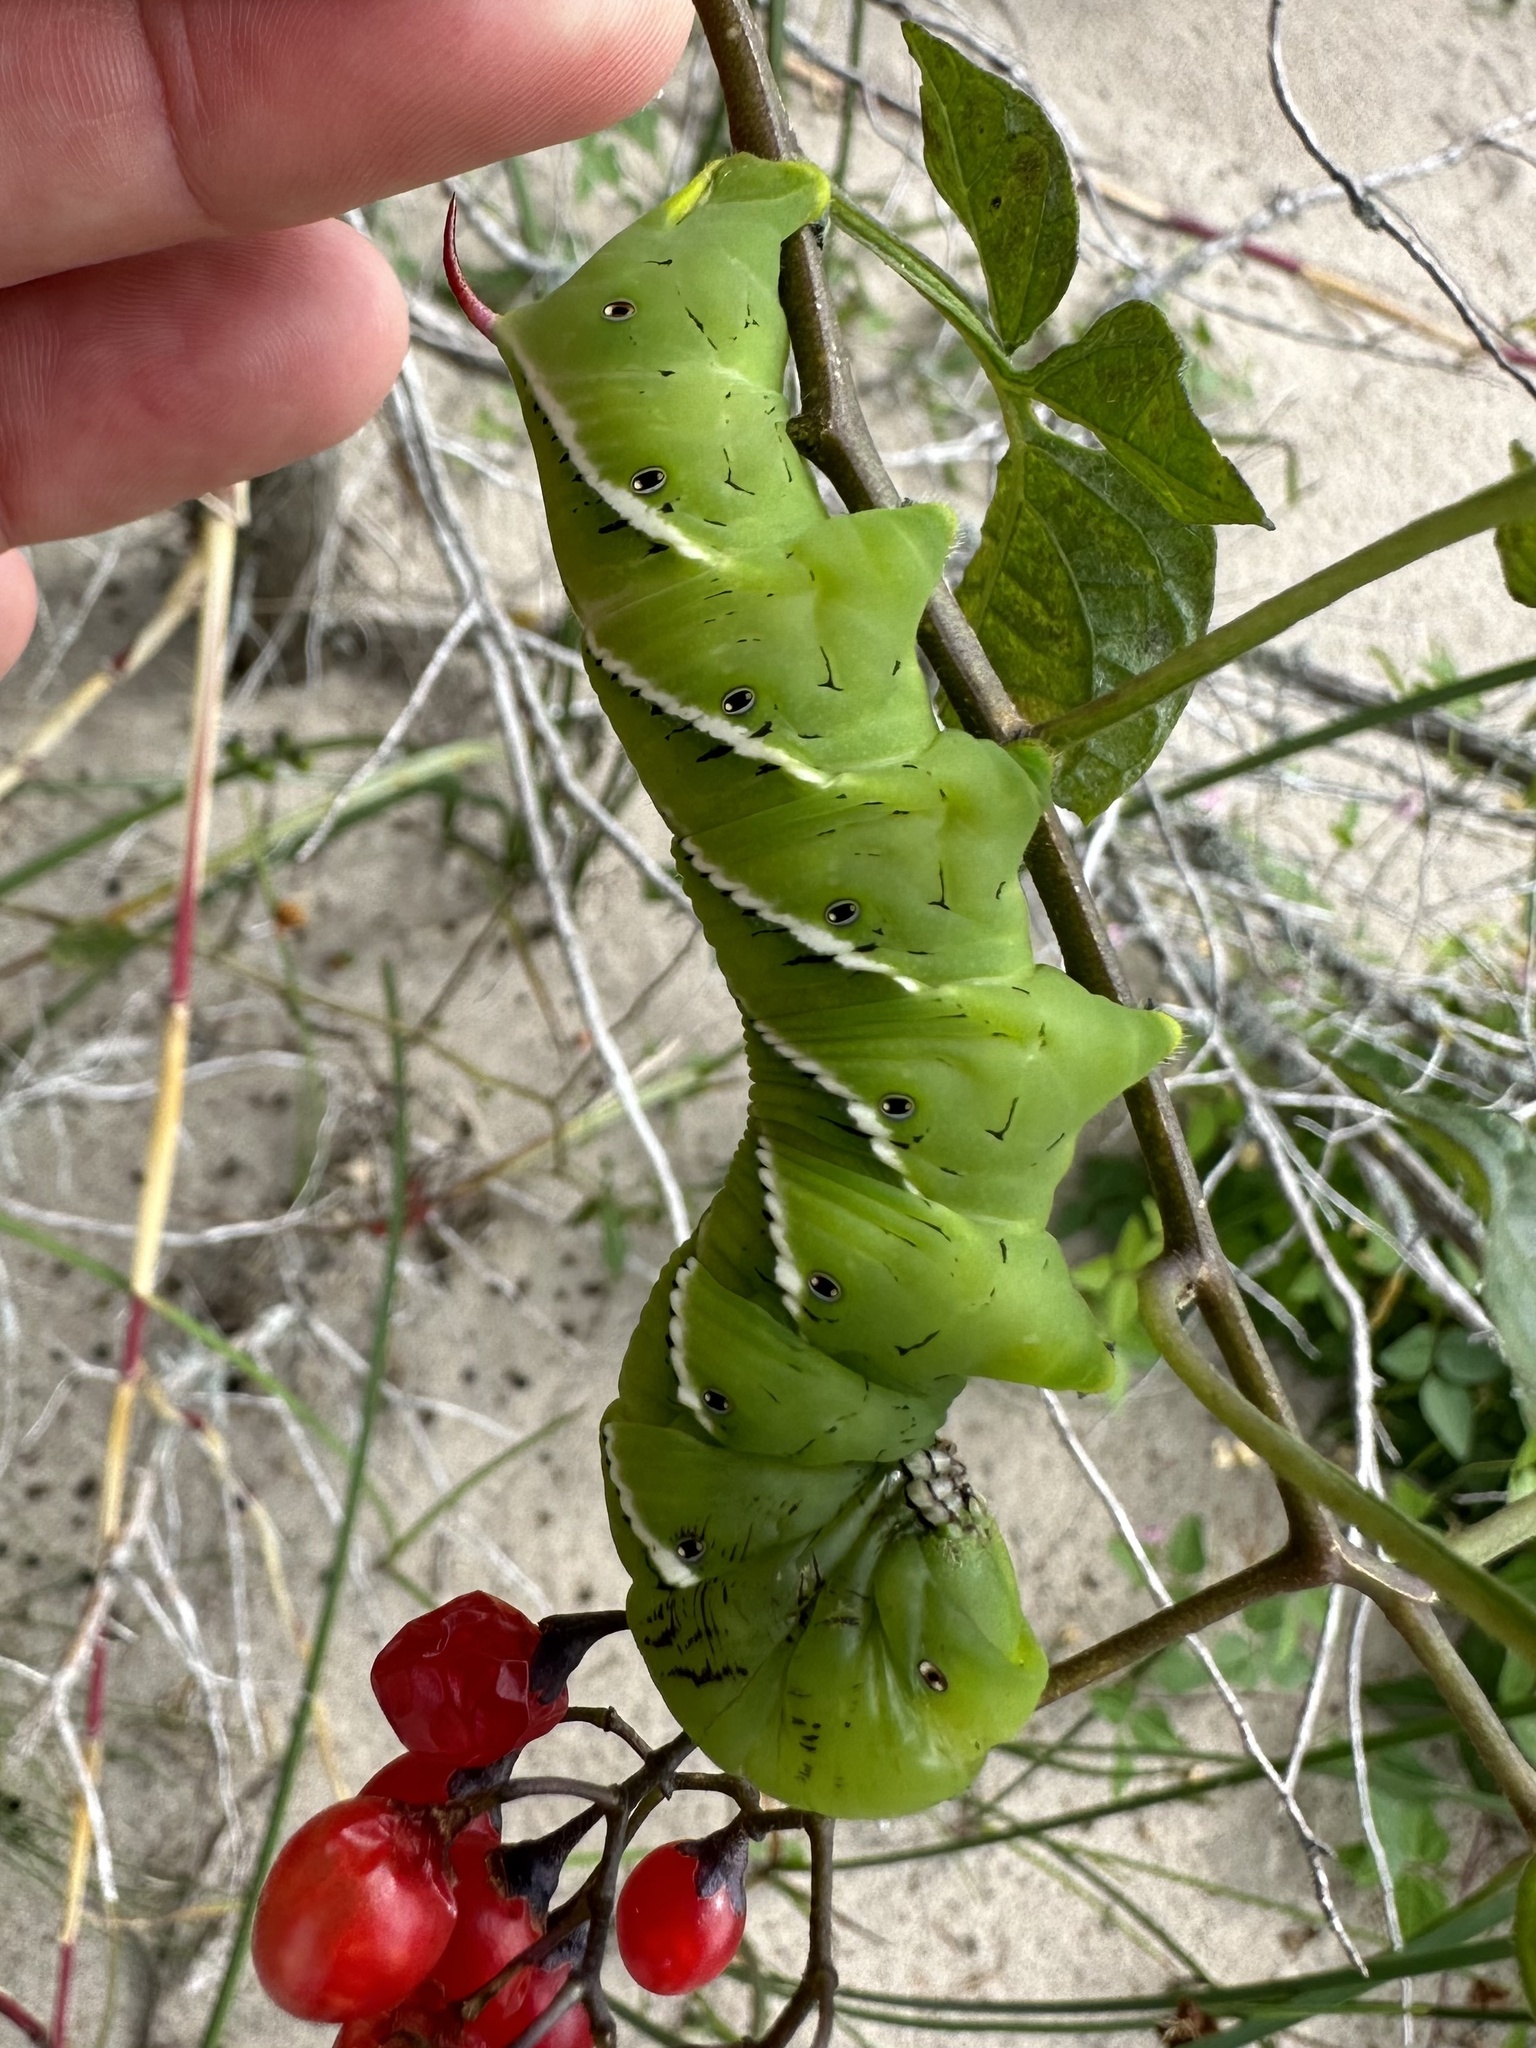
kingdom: Animalia
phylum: Arthropoda
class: Insecta
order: Lepidoptera
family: Sphingidae
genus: Manduca
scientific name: Manduca sexta
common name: Carolina sphinx
